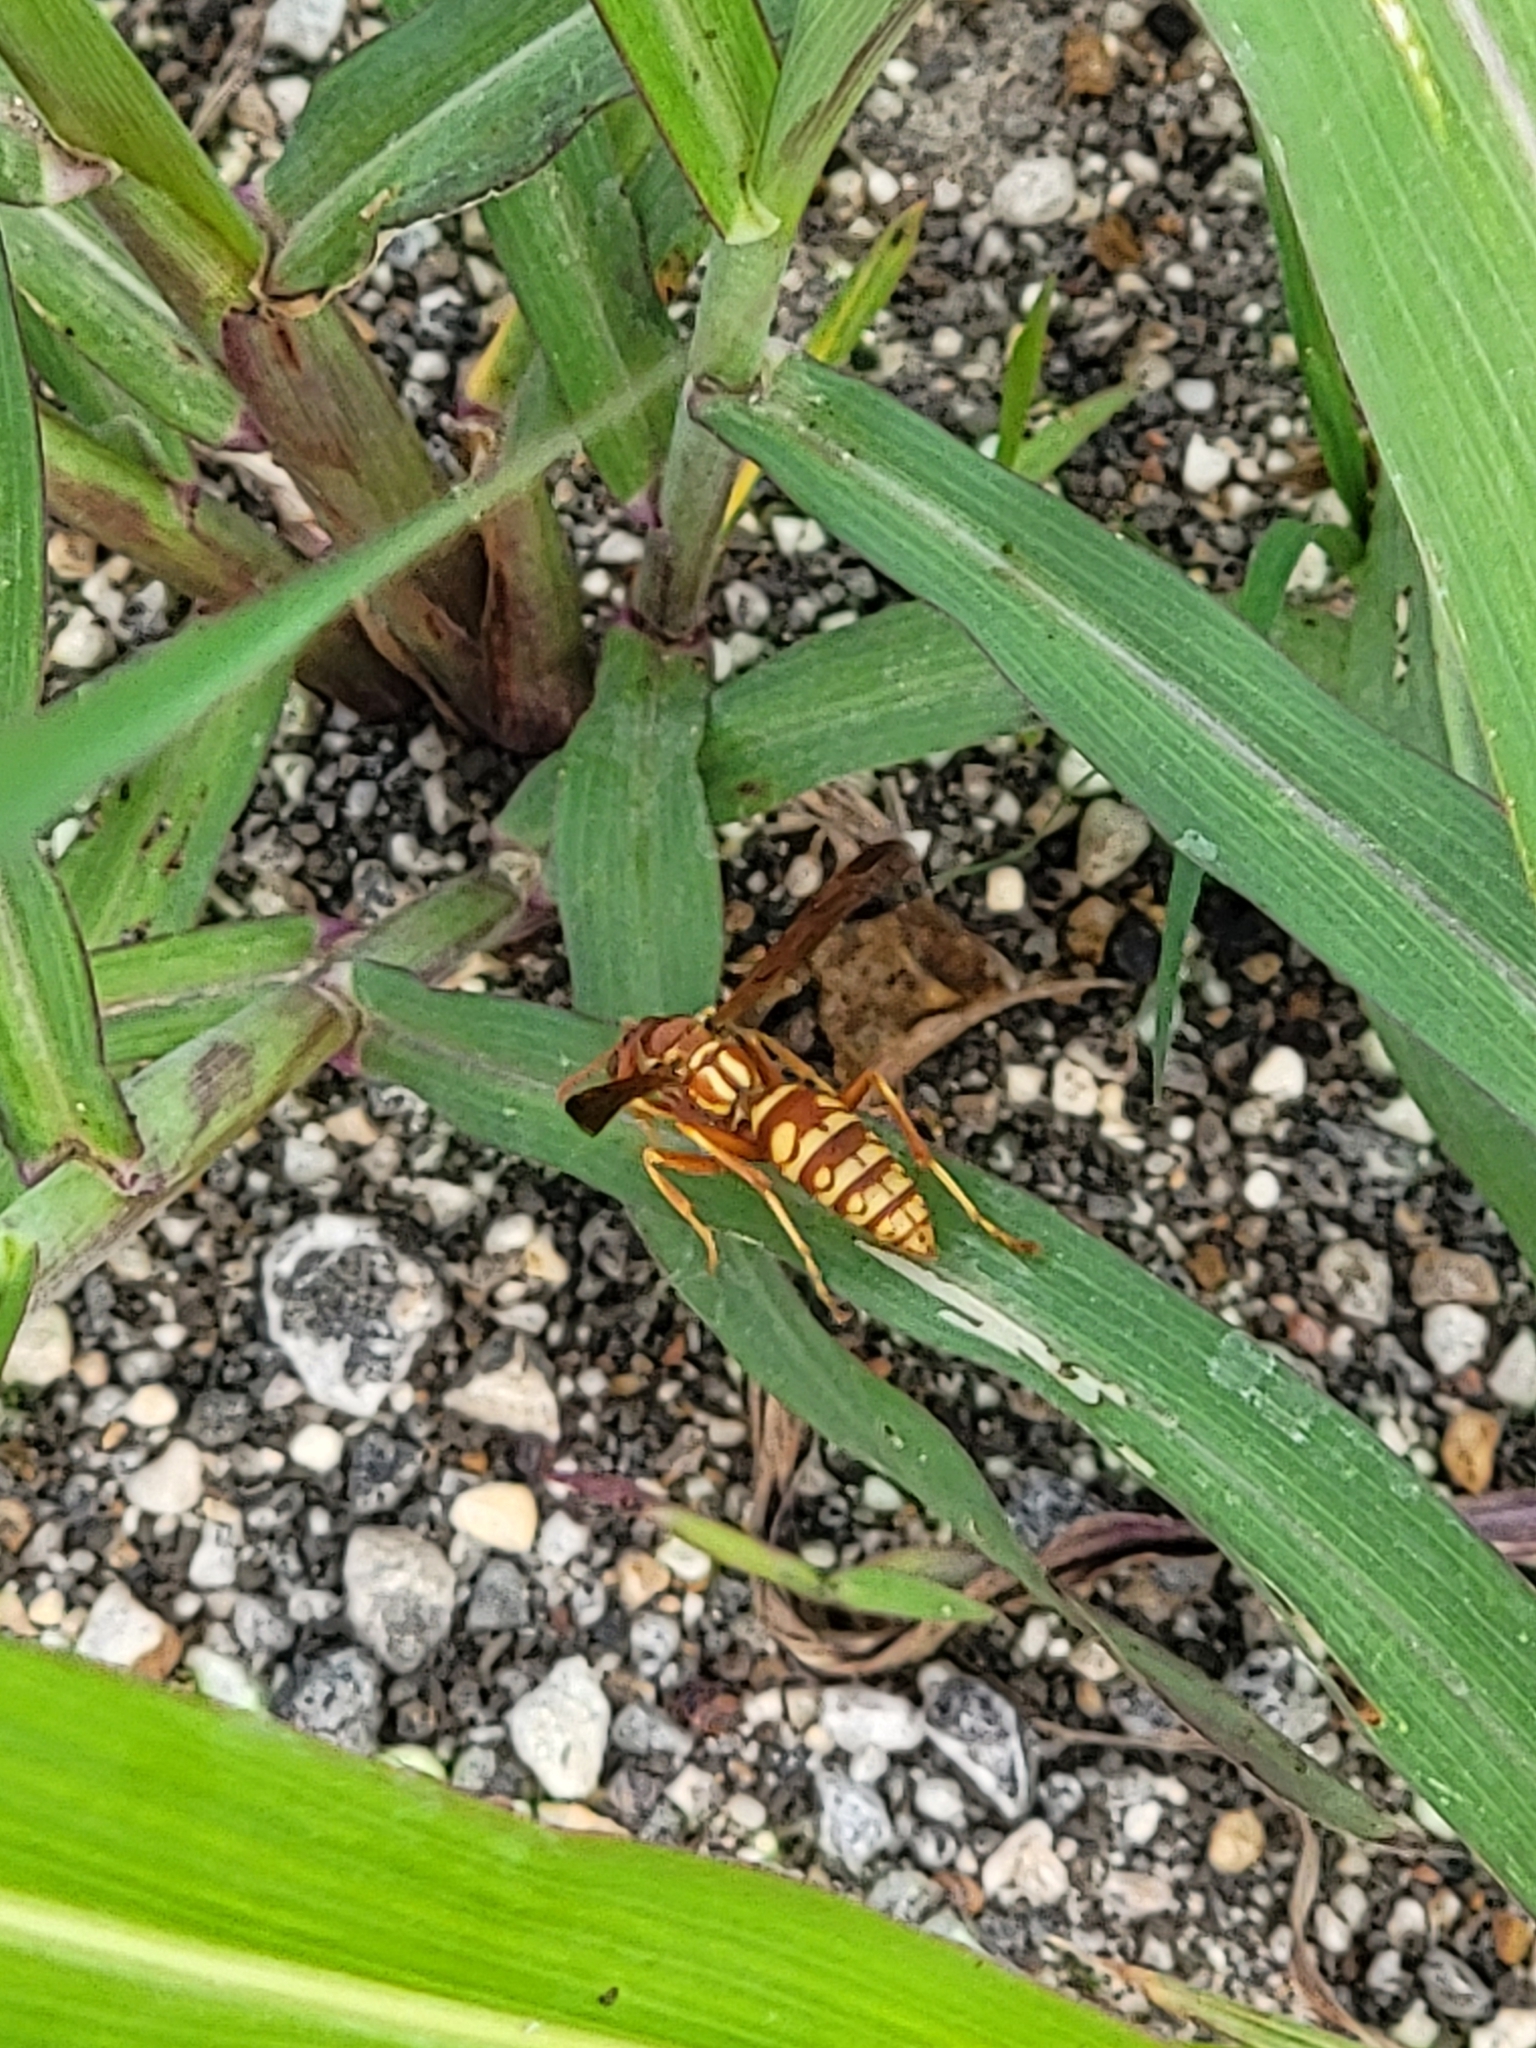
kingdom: Animalia
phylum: Arthropoda
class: Insecta
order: Hymenoptera
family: Eumenidae
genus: Polistes
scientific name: Polistes apachus
